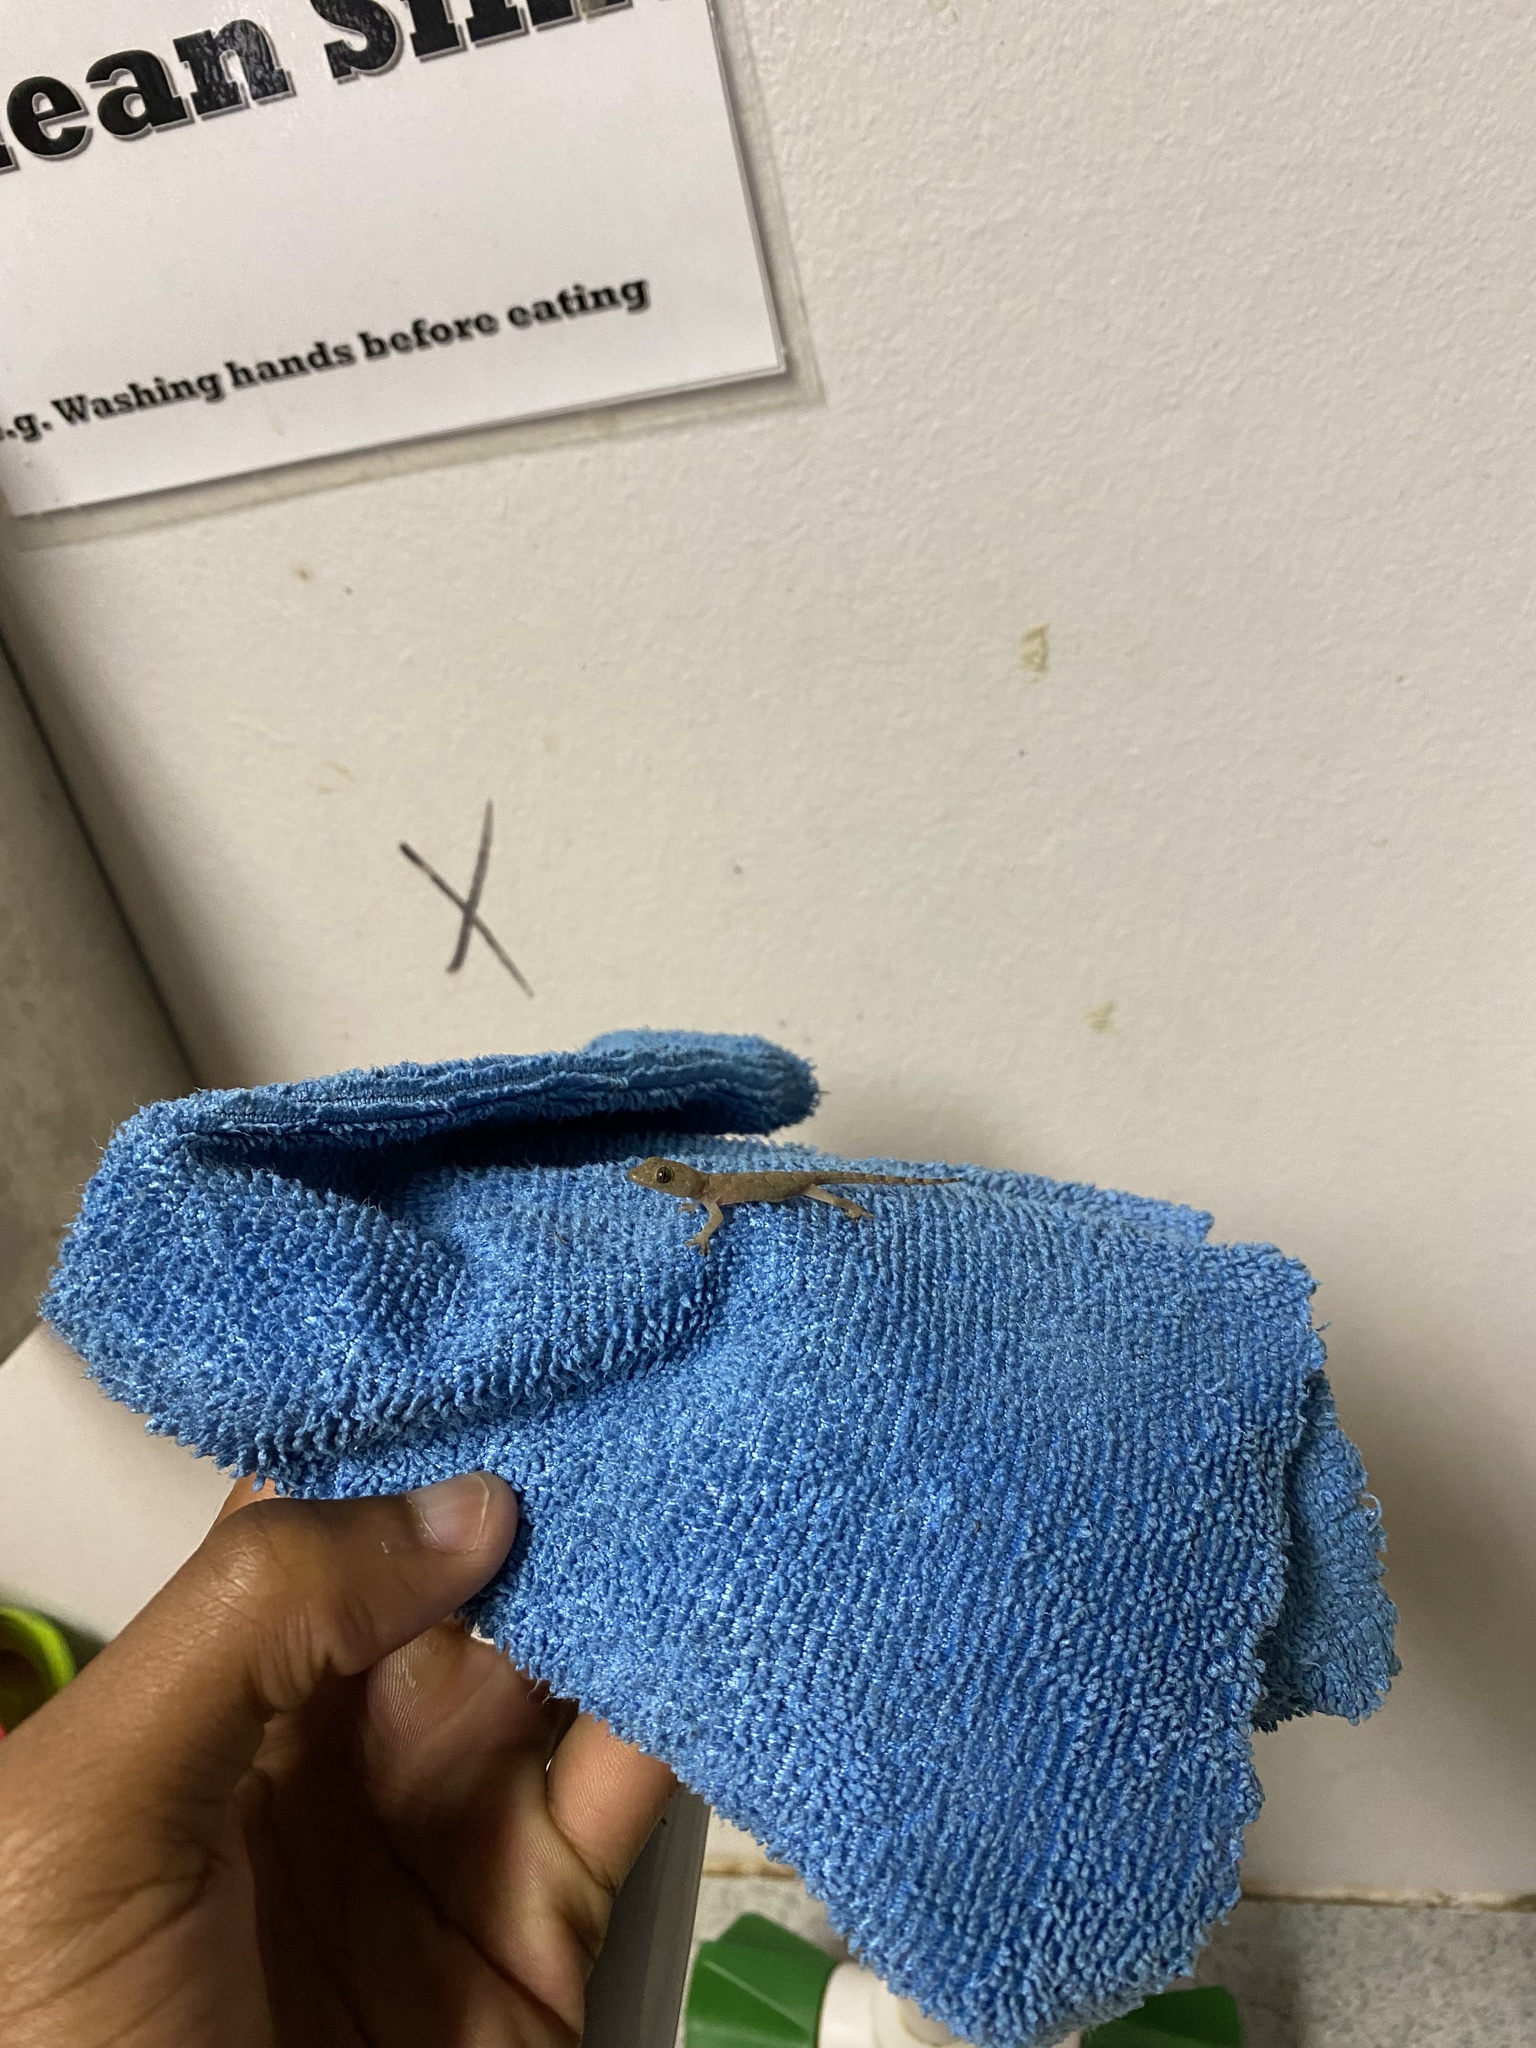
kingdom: Animalia
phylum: Chordata
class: Squamata
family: Gekkonidae
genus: Hemidactylus
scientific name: Hemidactylus mabouia
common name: House gecko
